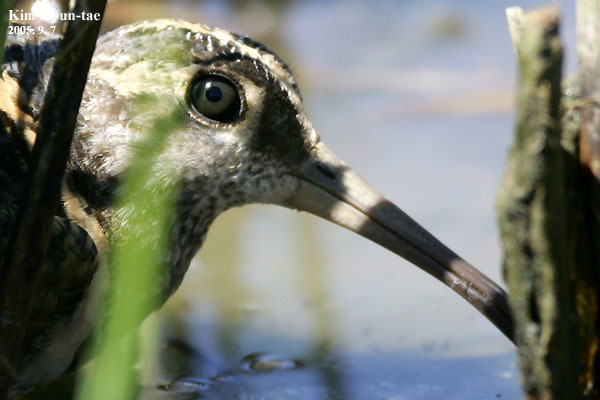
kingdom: Animalia
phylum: Chordata
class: Aves
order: Charadriiformes
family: Rostratulidae
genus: Rostratula
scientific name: Rostratula benghalensis
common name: Greater painted-snipe
